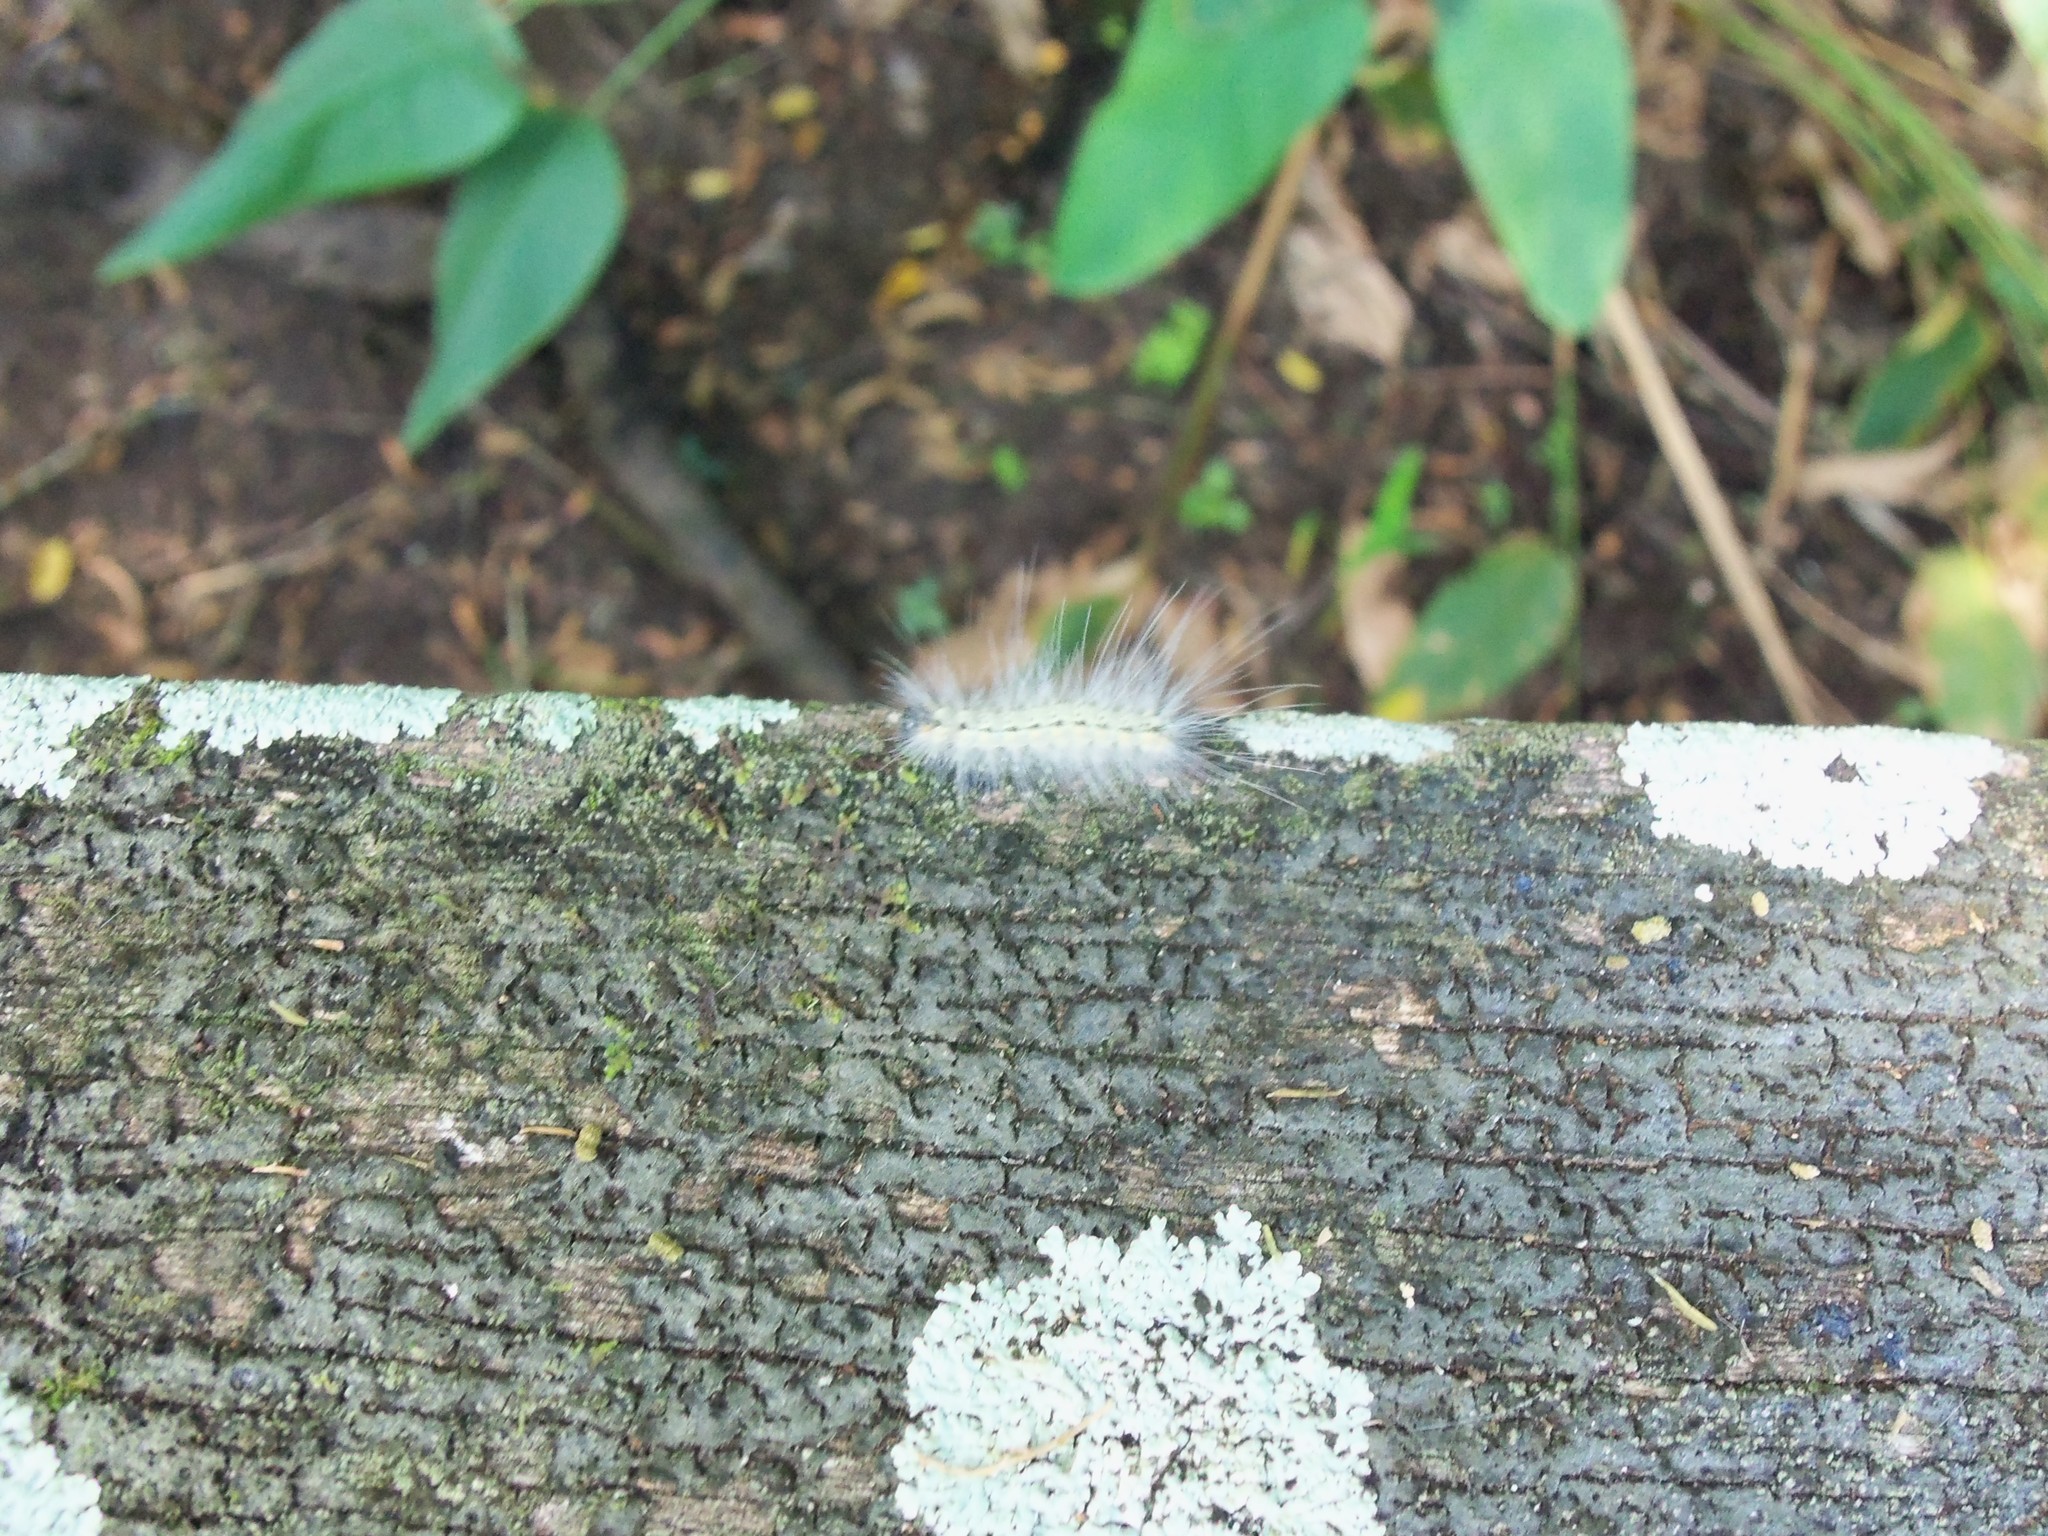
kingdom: Animalia
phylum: Arthropoda
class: Insecta
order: Lepidoptera
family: Erebidae
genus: Hyphantria
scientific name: Hyphantria cunea
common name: American white moth
